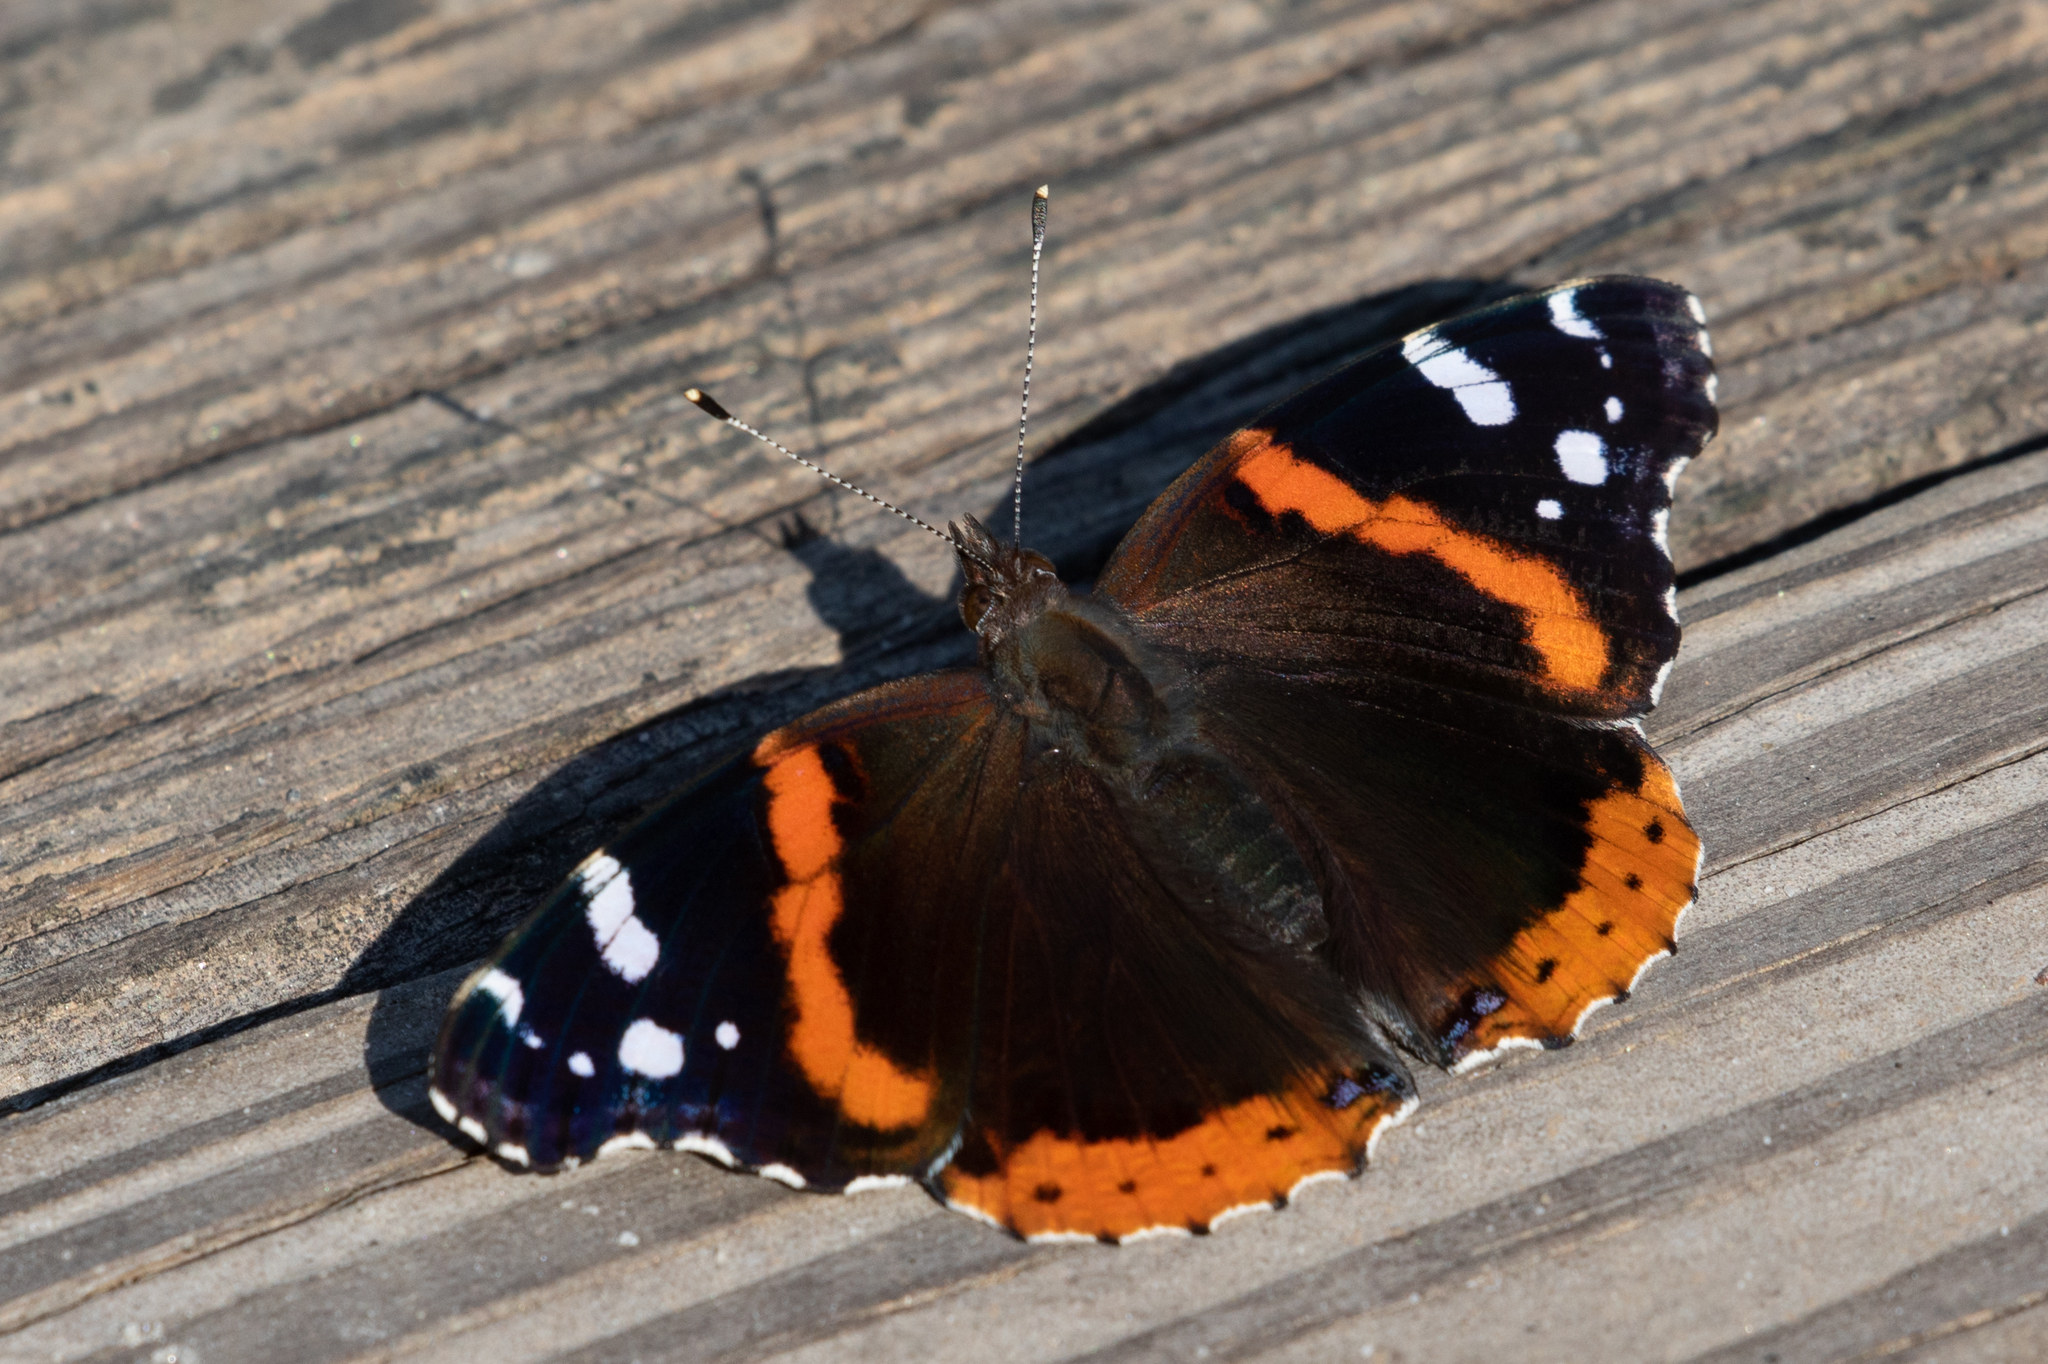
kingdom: Animalia
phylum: Arthropoda
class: Insecta
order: Lepidoptera
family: Nymphalidae
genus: Vanessa
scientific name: Vanessa atalanta
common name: Red admiral
